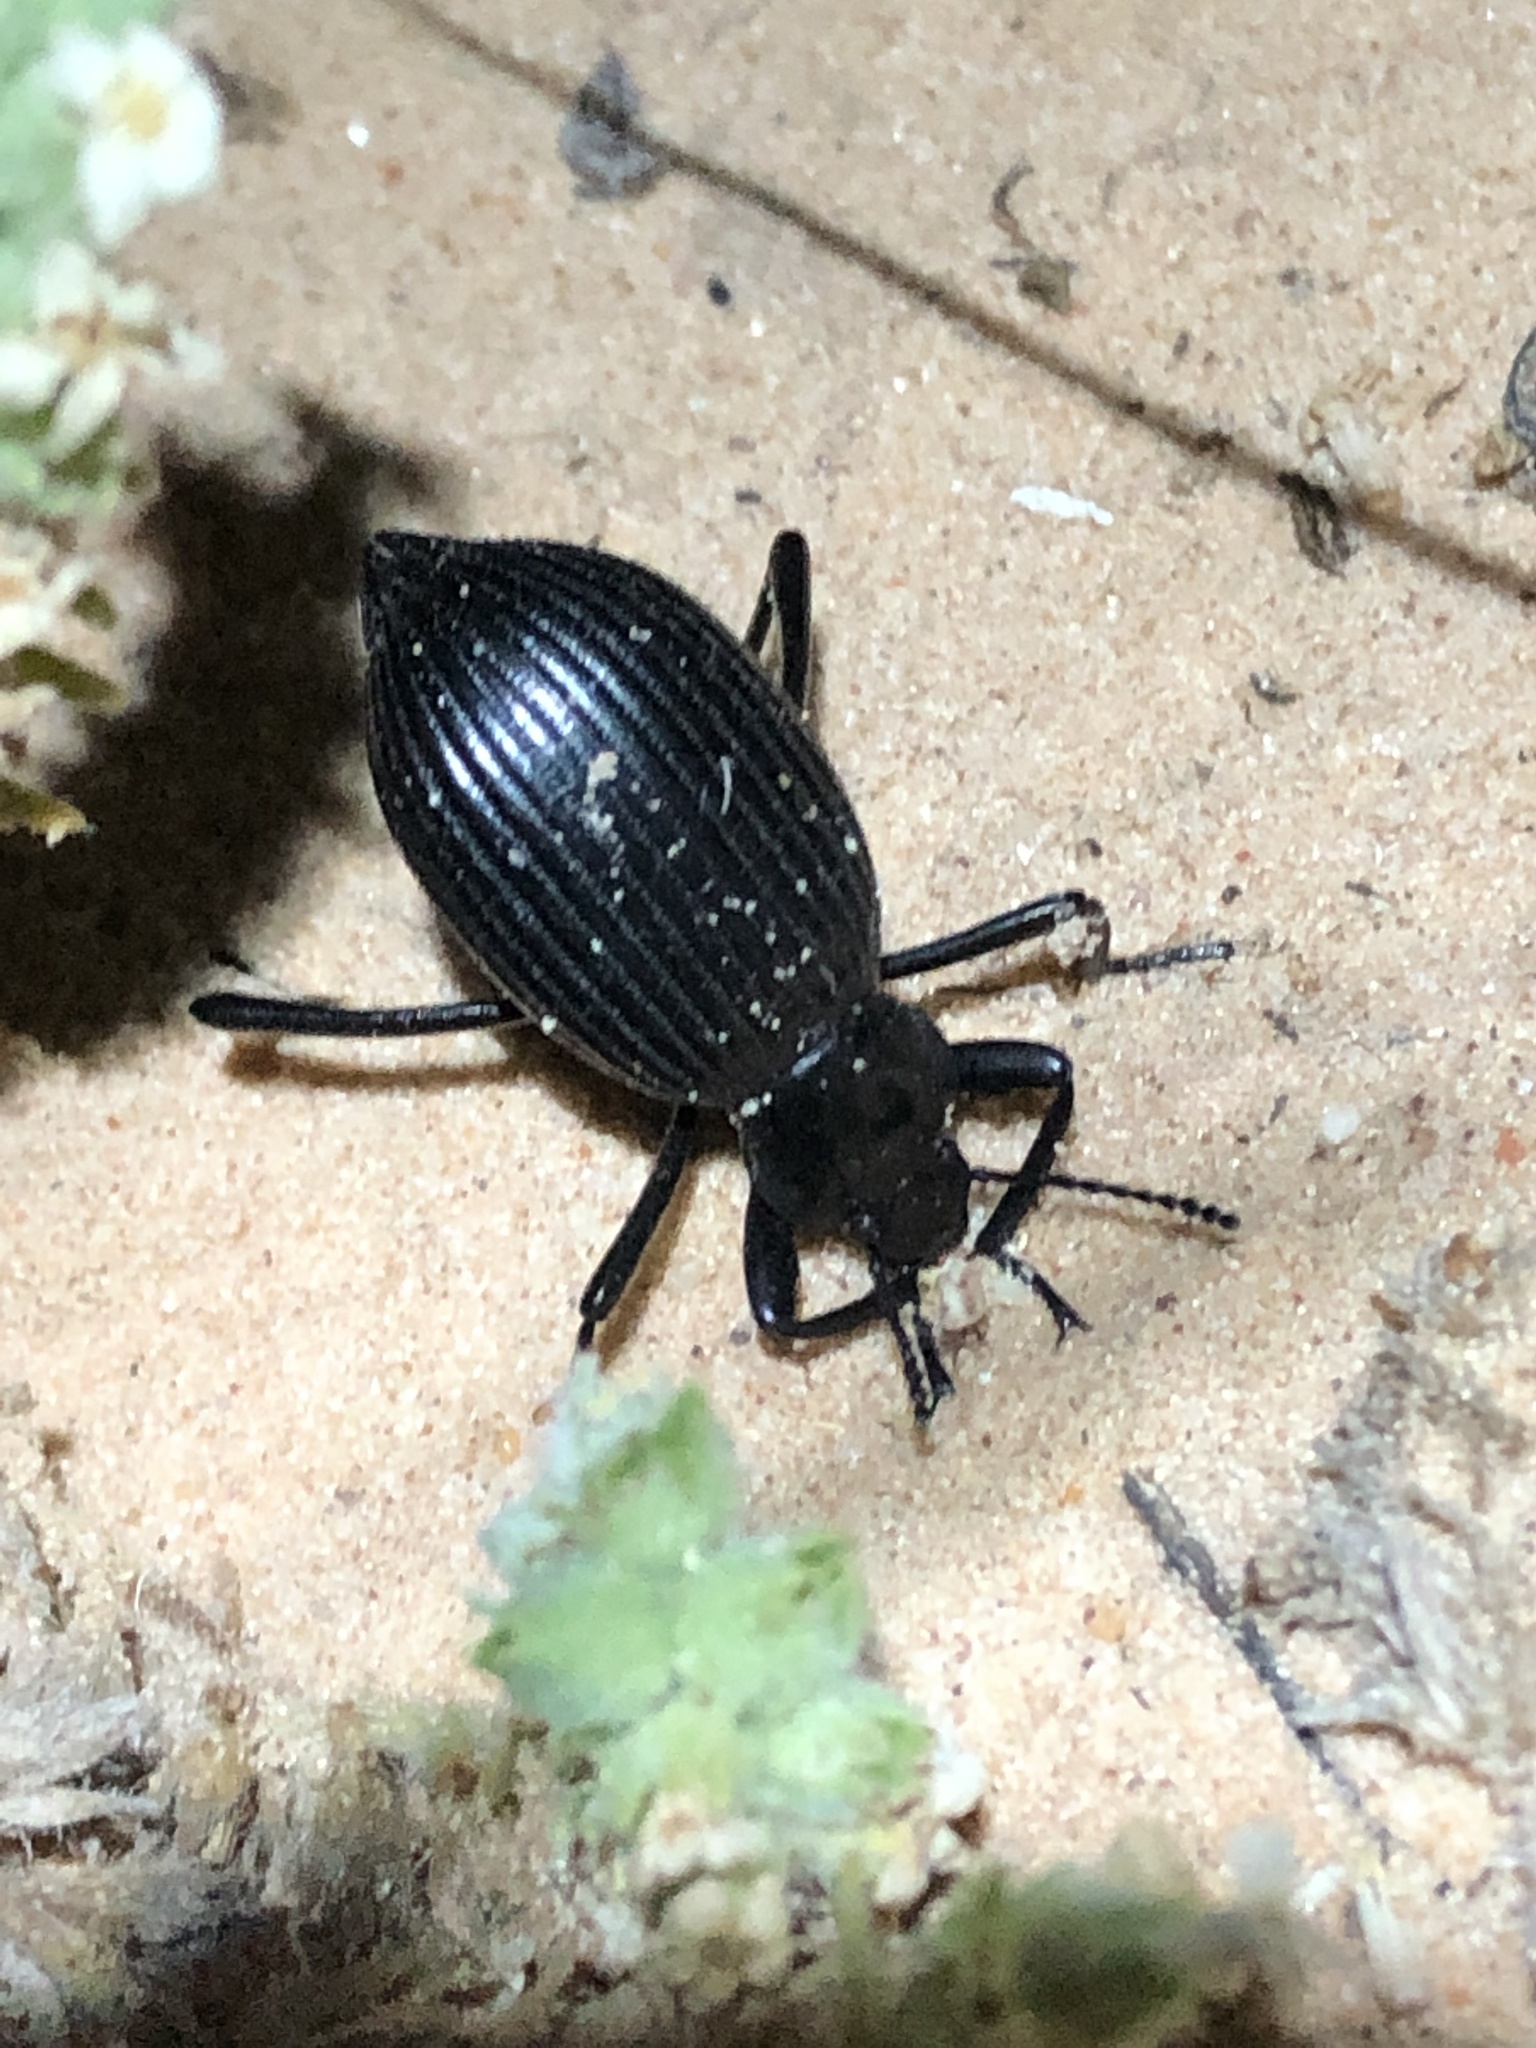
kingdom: Animalia
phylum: Arthropoda
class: Insecta
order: Coleoptera
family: Tenebrionidae
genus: Eleodes
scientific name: Eleodes hispilabris
